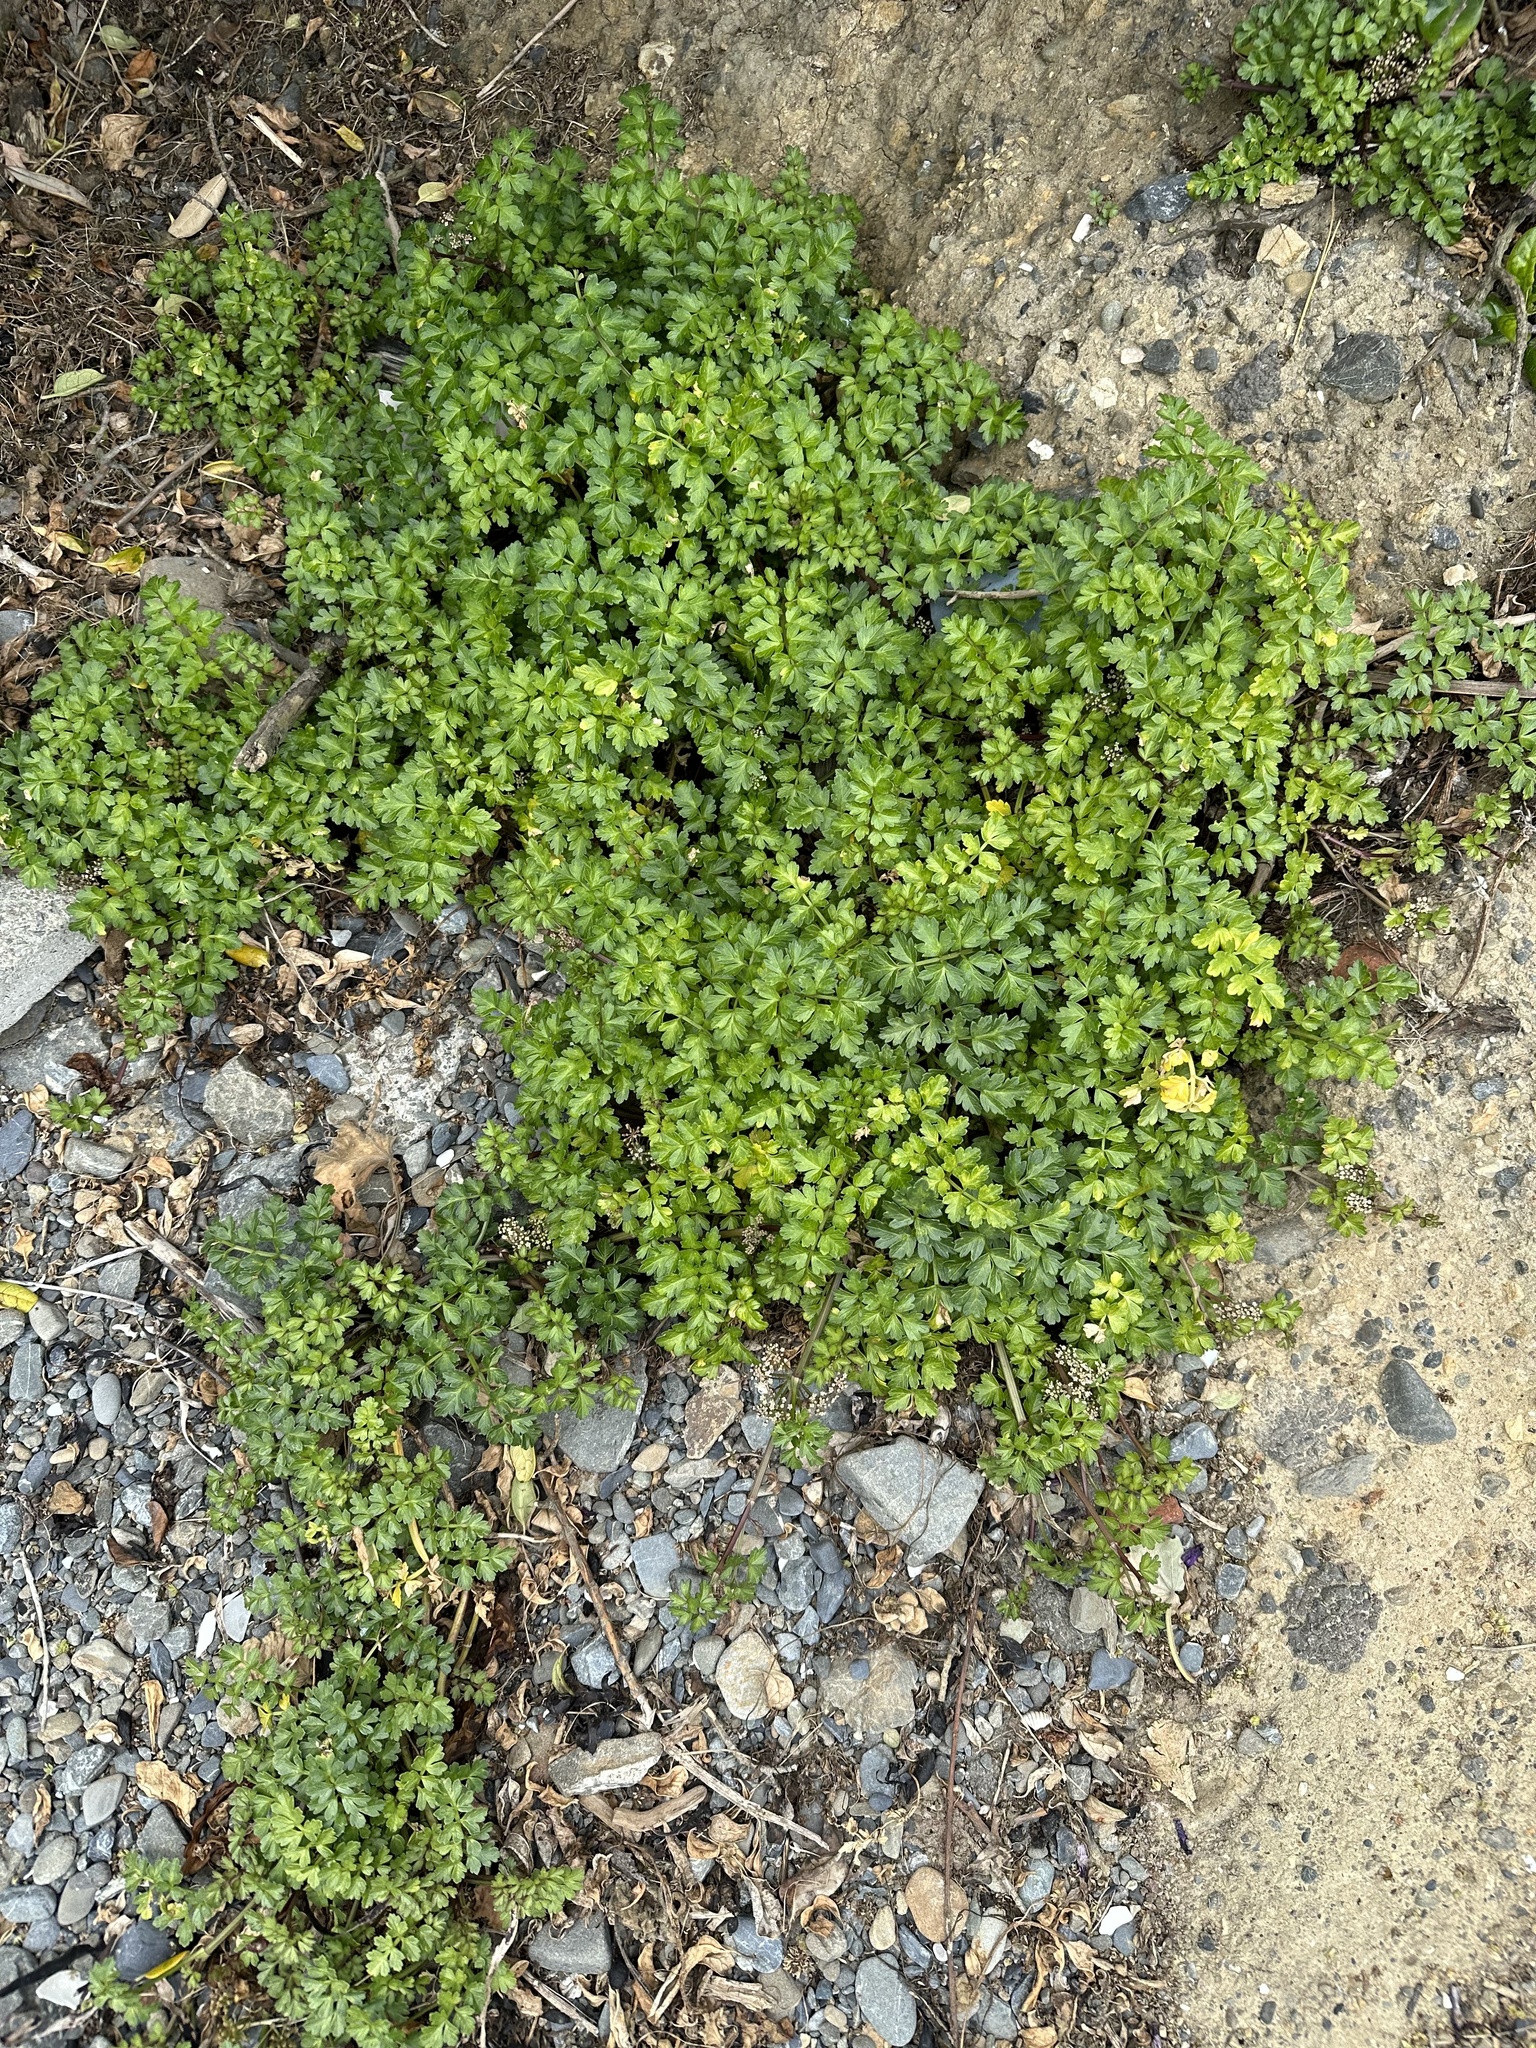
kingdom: Plantae
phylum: Tracheophyta
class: Magnoliopsida
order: Apiales
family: Apiaceae
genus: Apium
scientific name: Apium prostratum
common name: Prostrate marshwort
